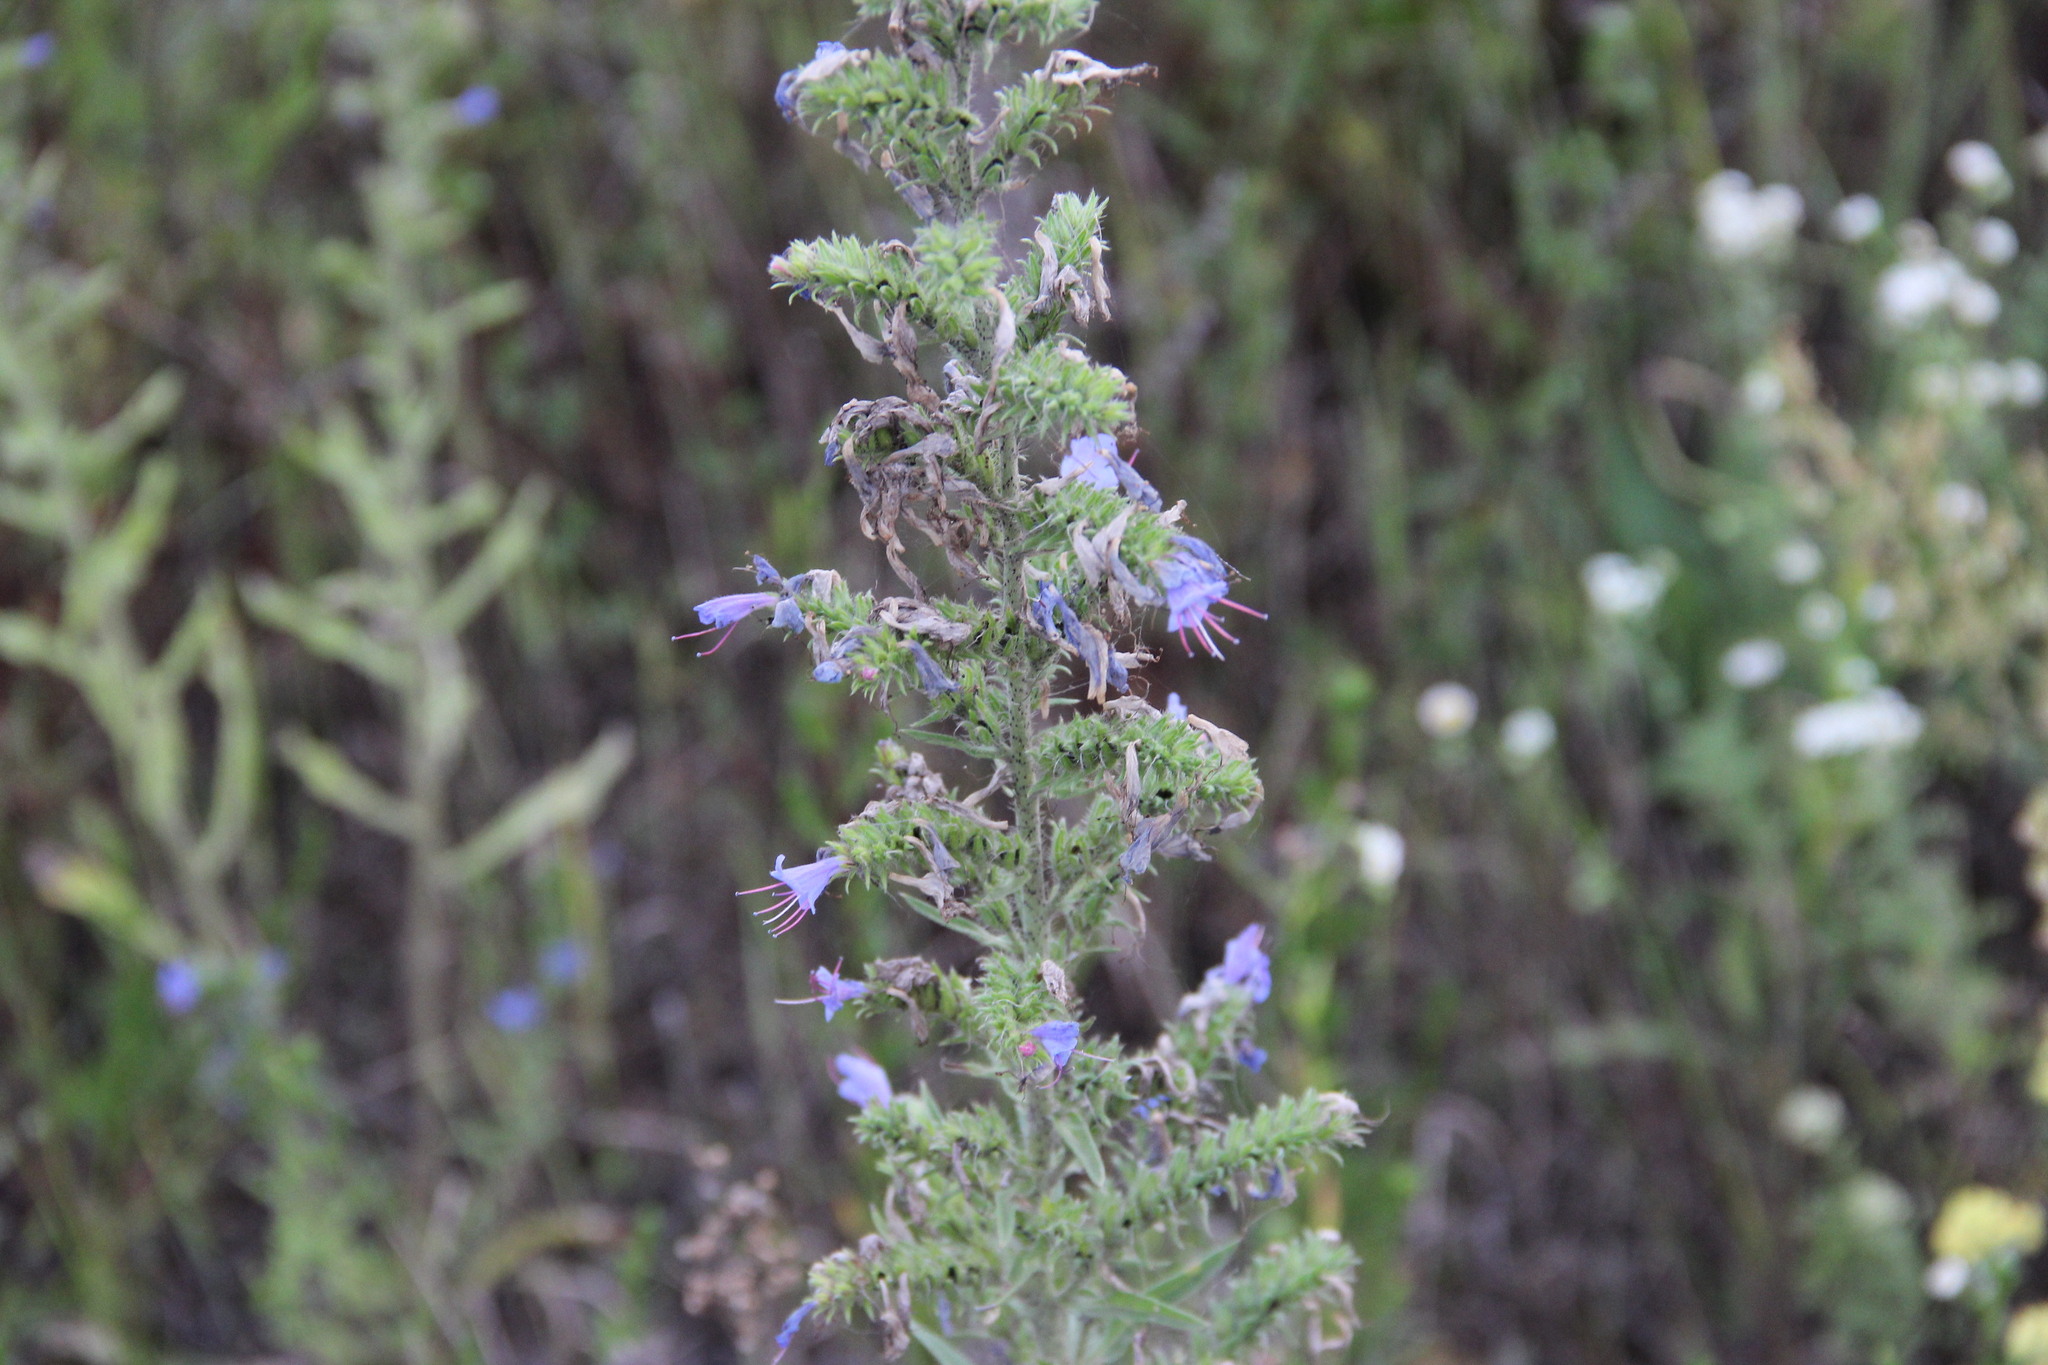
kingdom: Plantae
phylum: Tracheophyta
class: Magnoliopsida
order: Boraginales
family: Boraginaceae
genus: Echium
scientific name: Echium vulgare
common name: Common viper's bugloss
